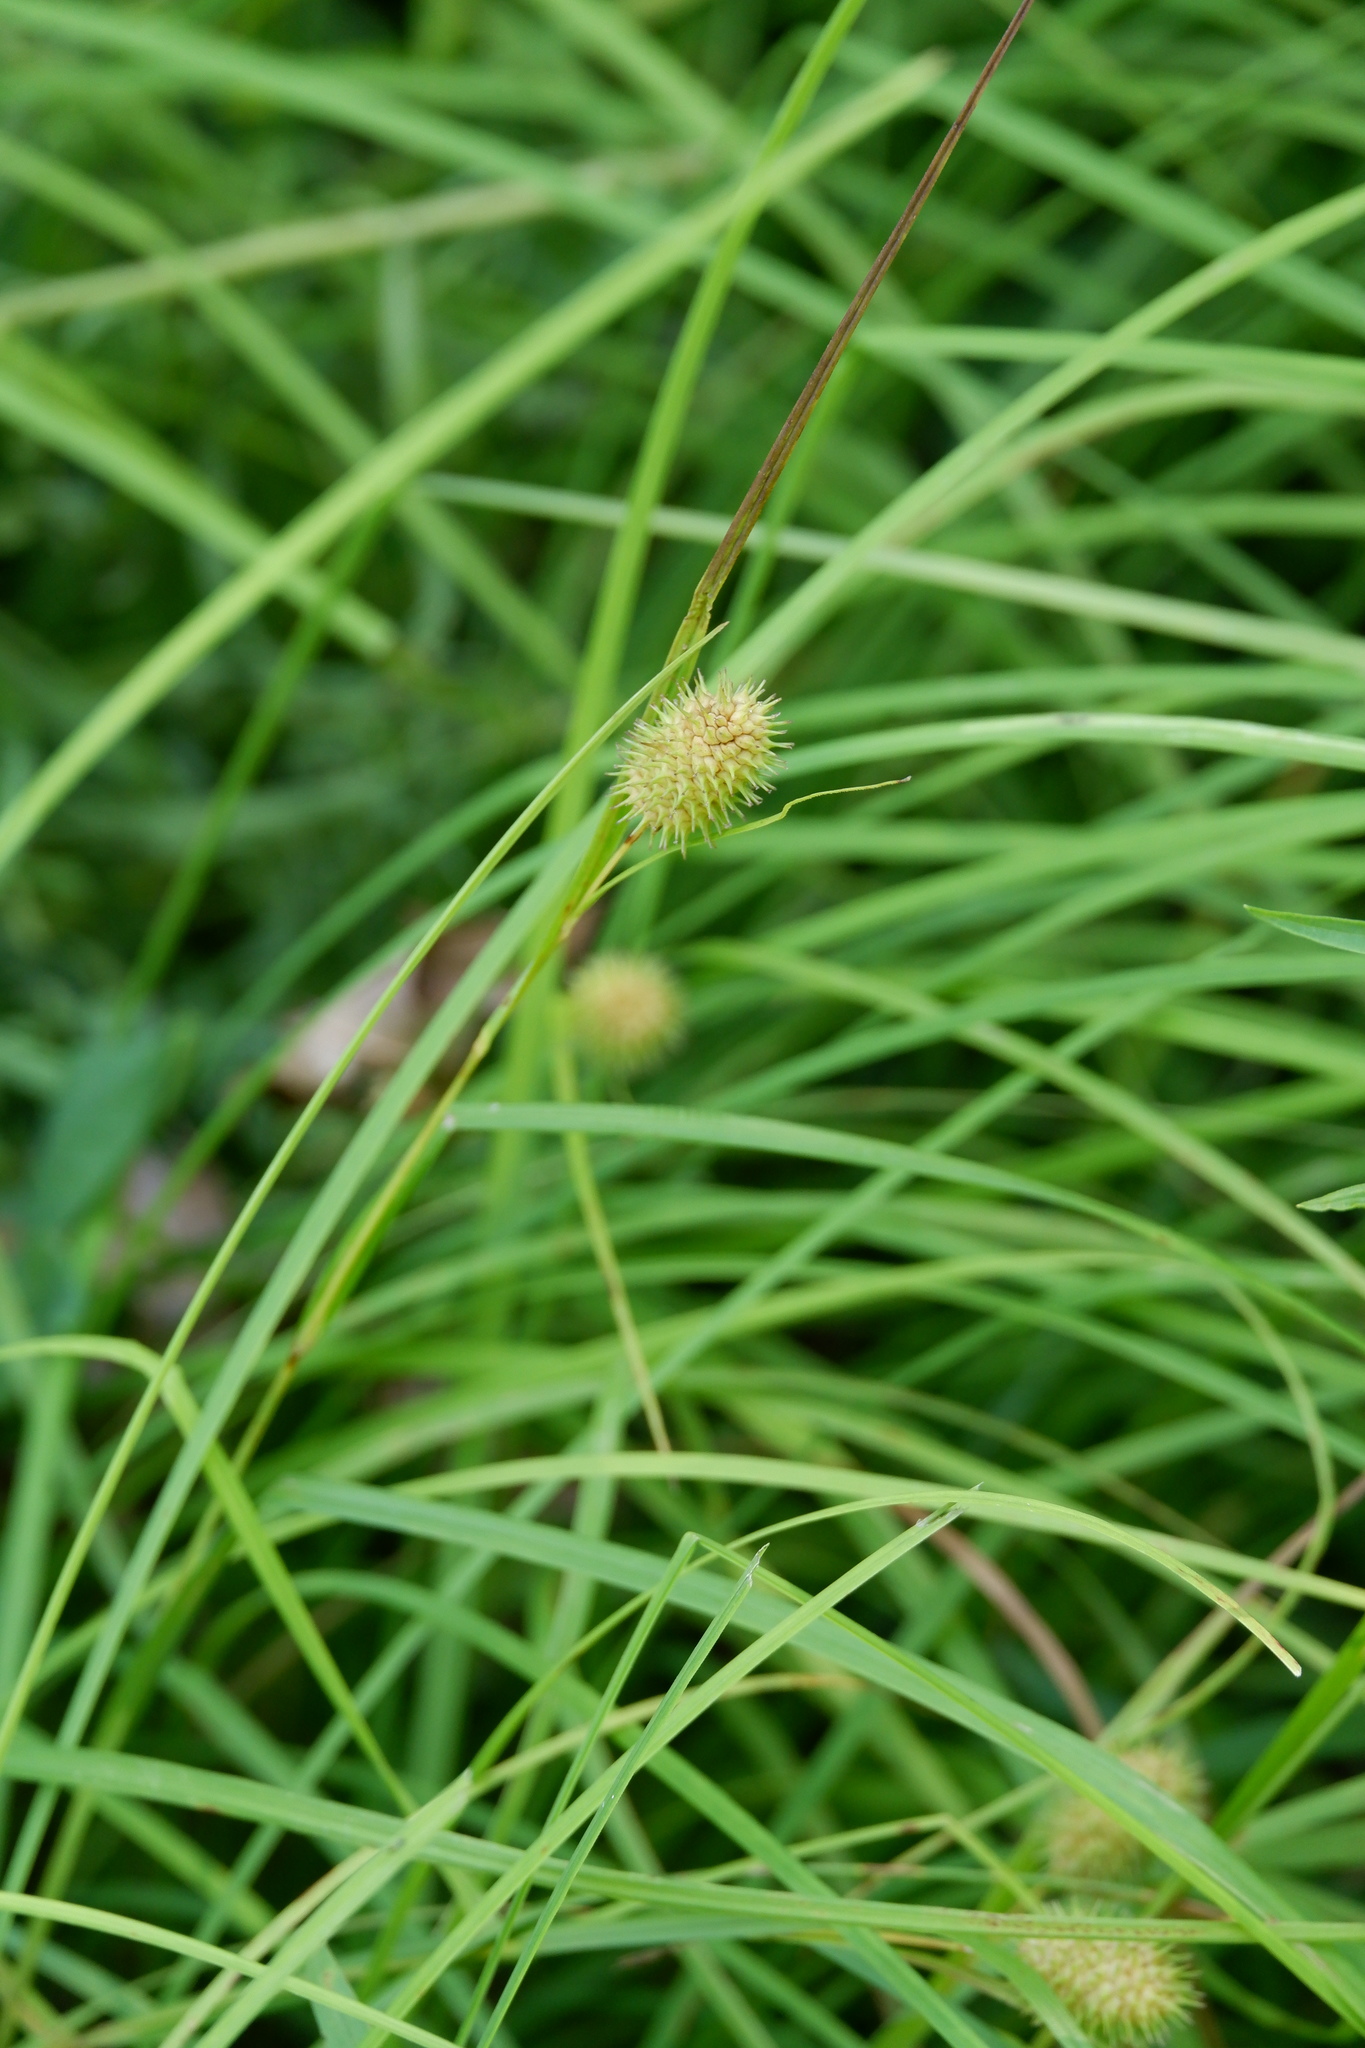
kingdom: Plantae
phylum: Tracheophyta
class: Liliopsida
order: Poales
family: Cyperaceae
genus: Carex
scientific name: Carex squarrosa
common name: Narrow-leaved cattail sedge
